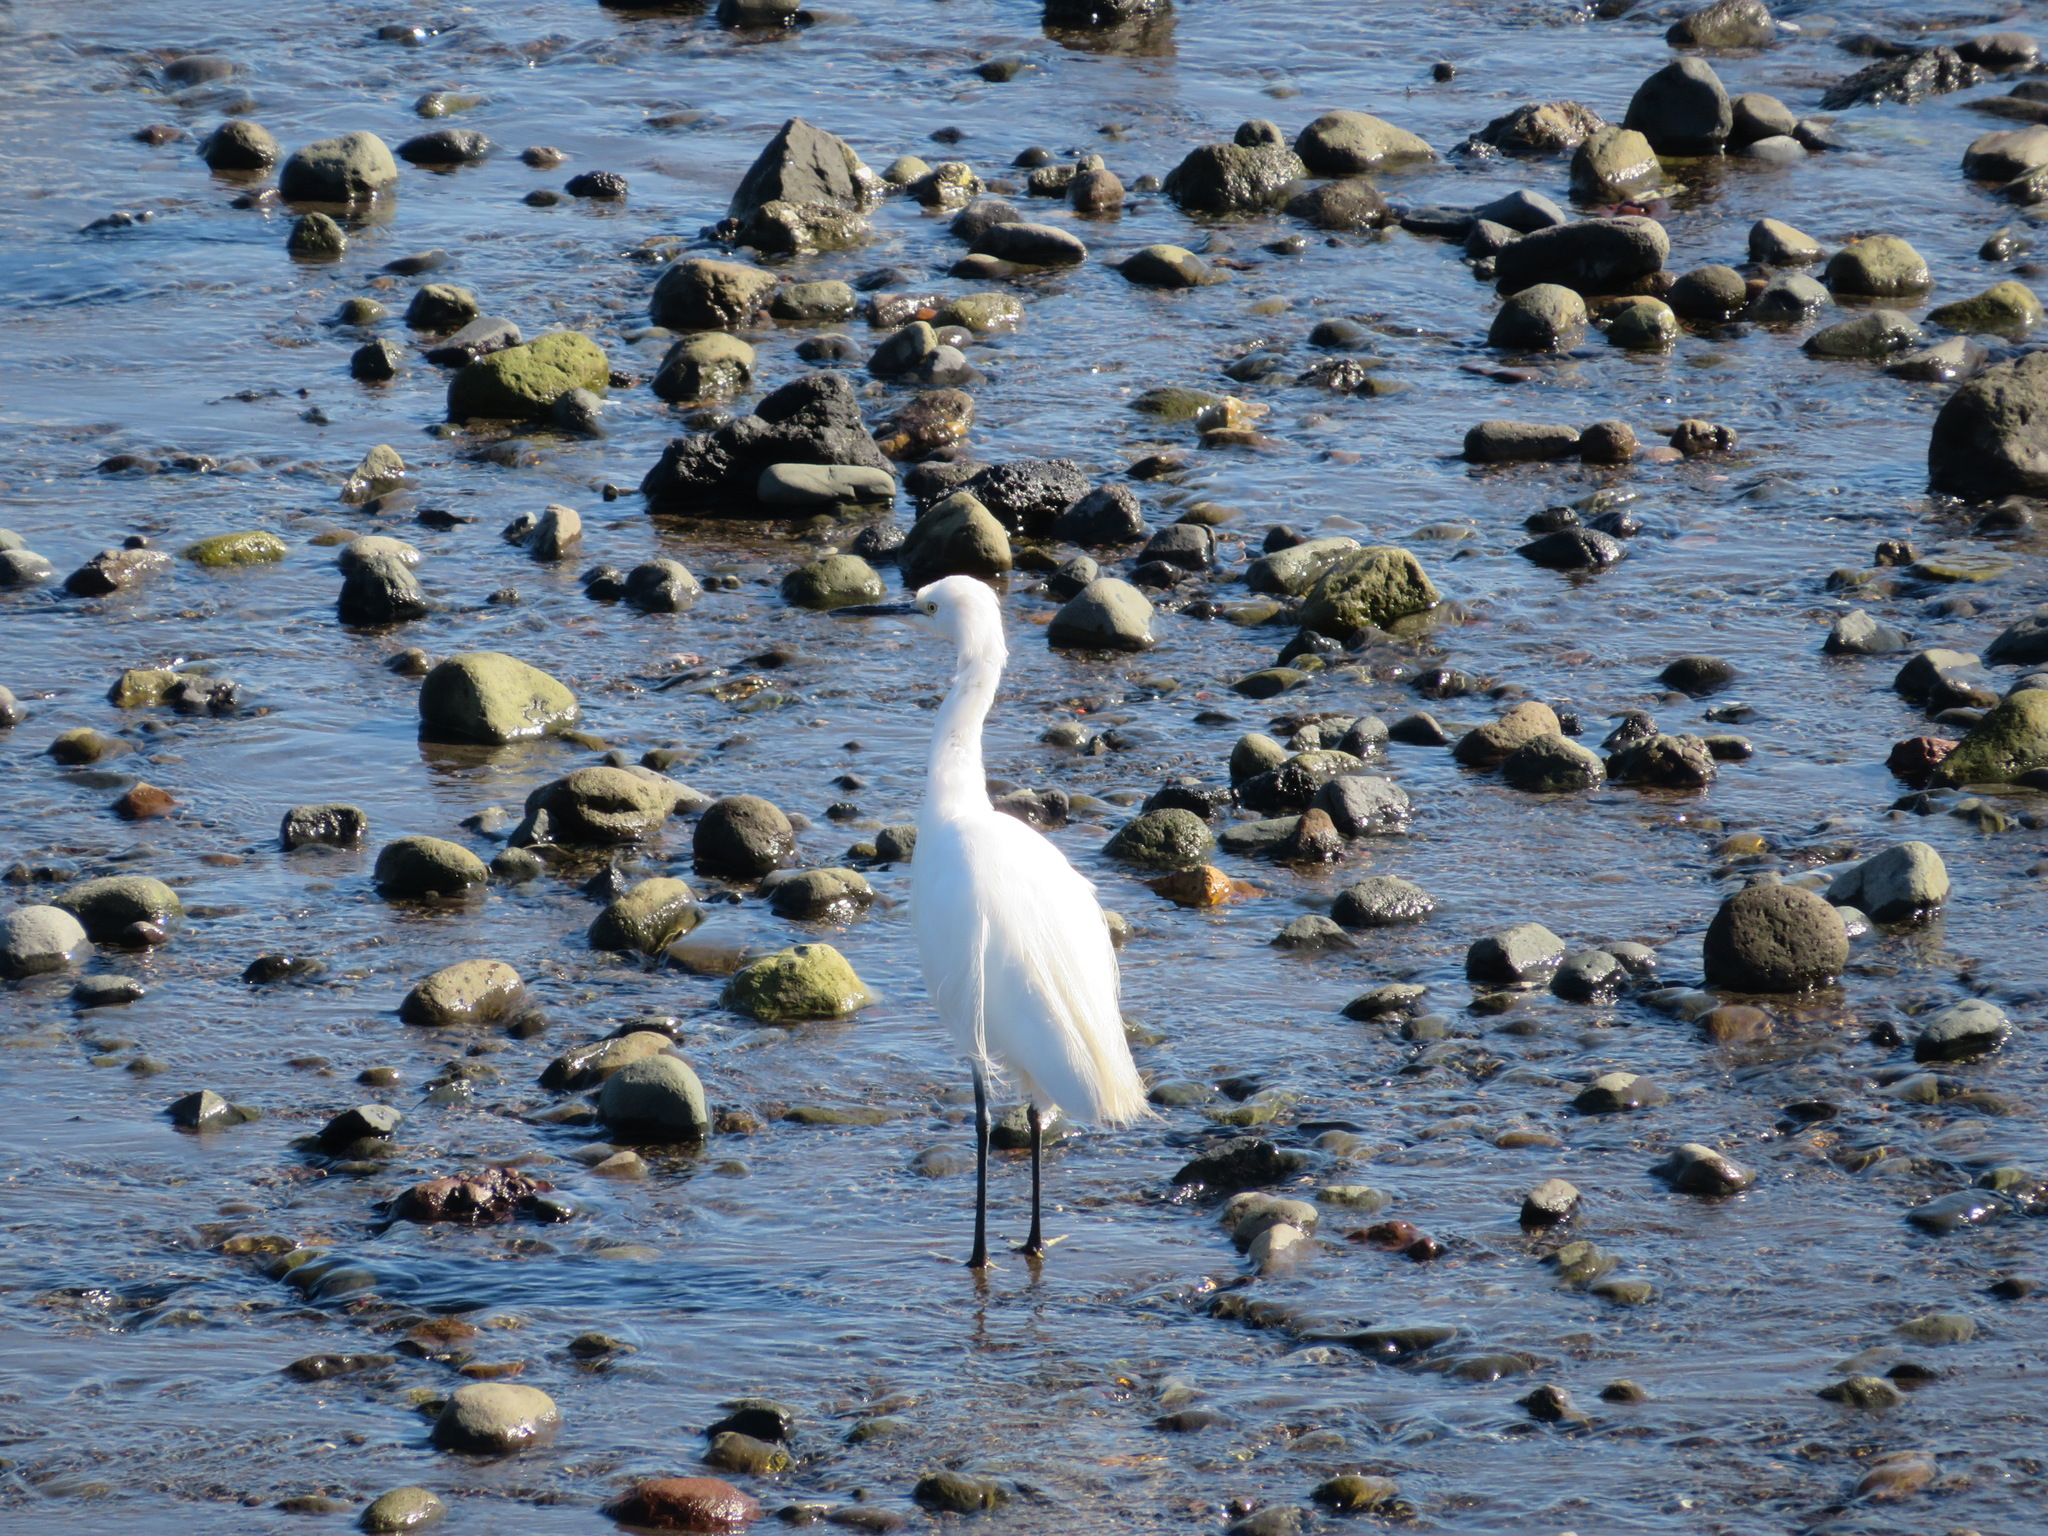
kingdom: Animalia
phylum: Chordata
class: Aves
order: Pelecaniformes
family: Ardeidae
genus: Egretta
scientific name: Egretta garzetta
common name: Little egret
